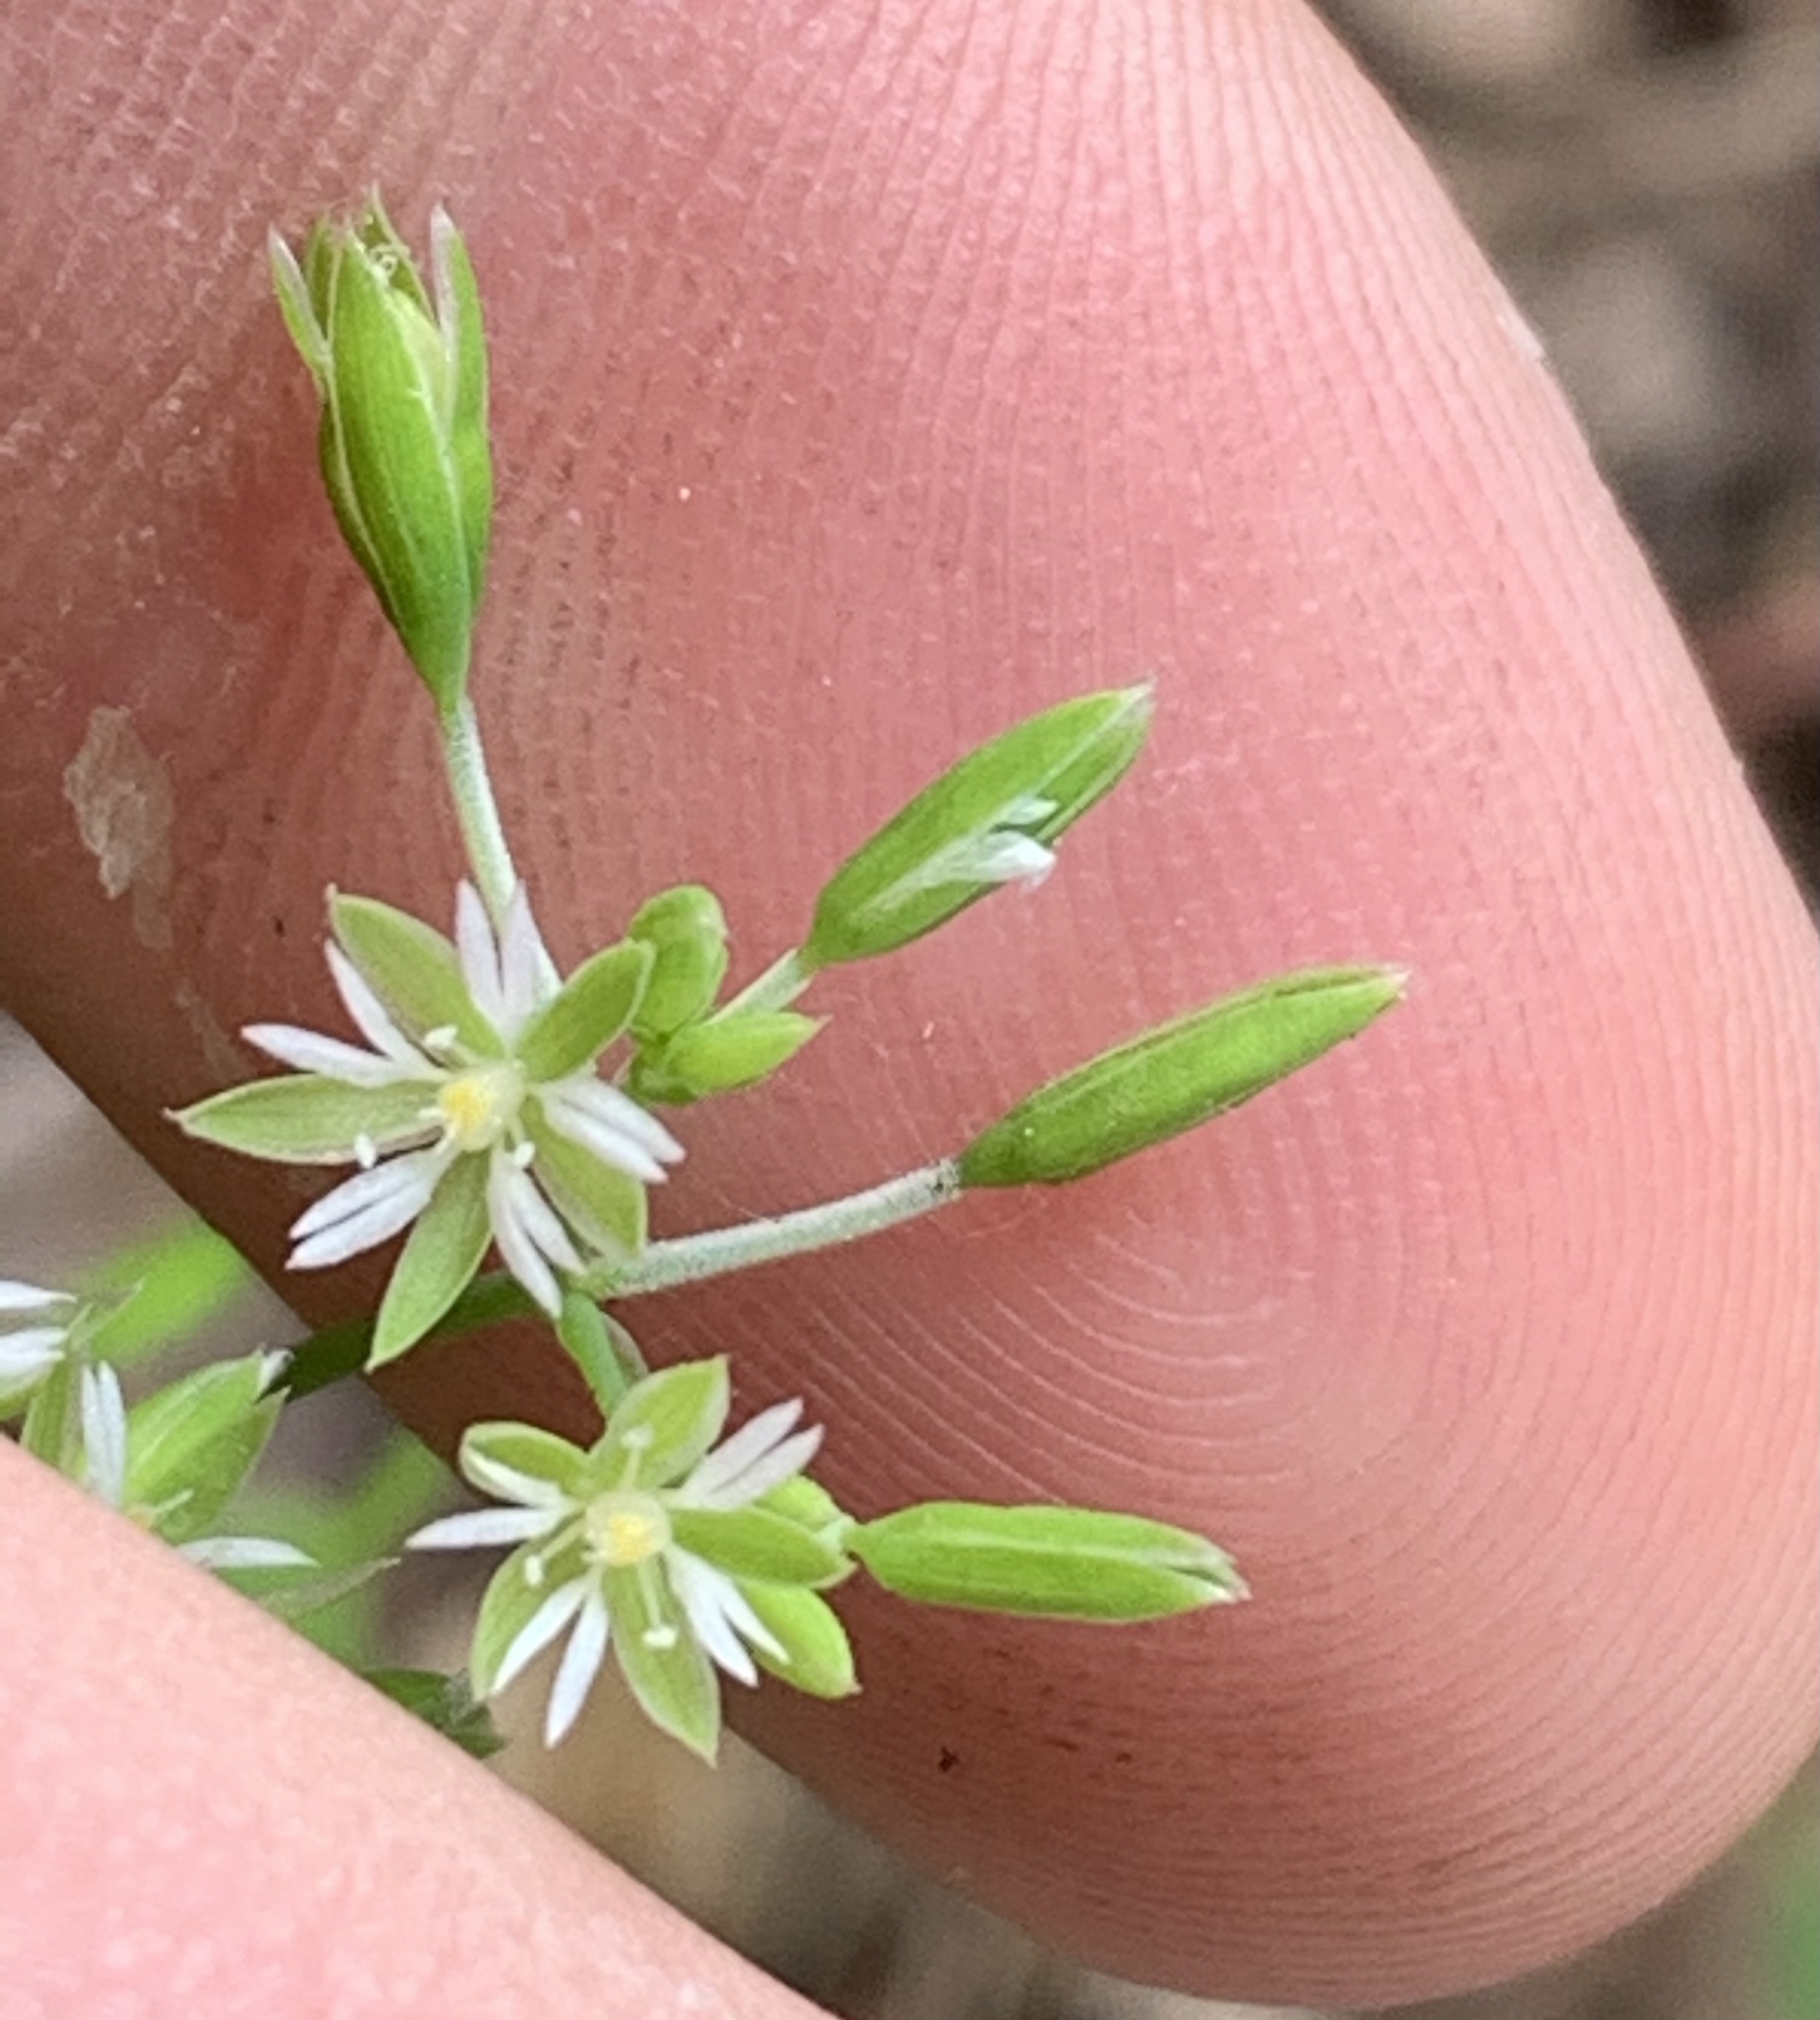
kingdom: Plantae
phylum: Tracheophyta
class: Magnoliopsida
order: Caryophyllales
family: Caryophyllaceae
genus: Drymaria
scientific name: Drymaria cordata
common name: Whitesnow
